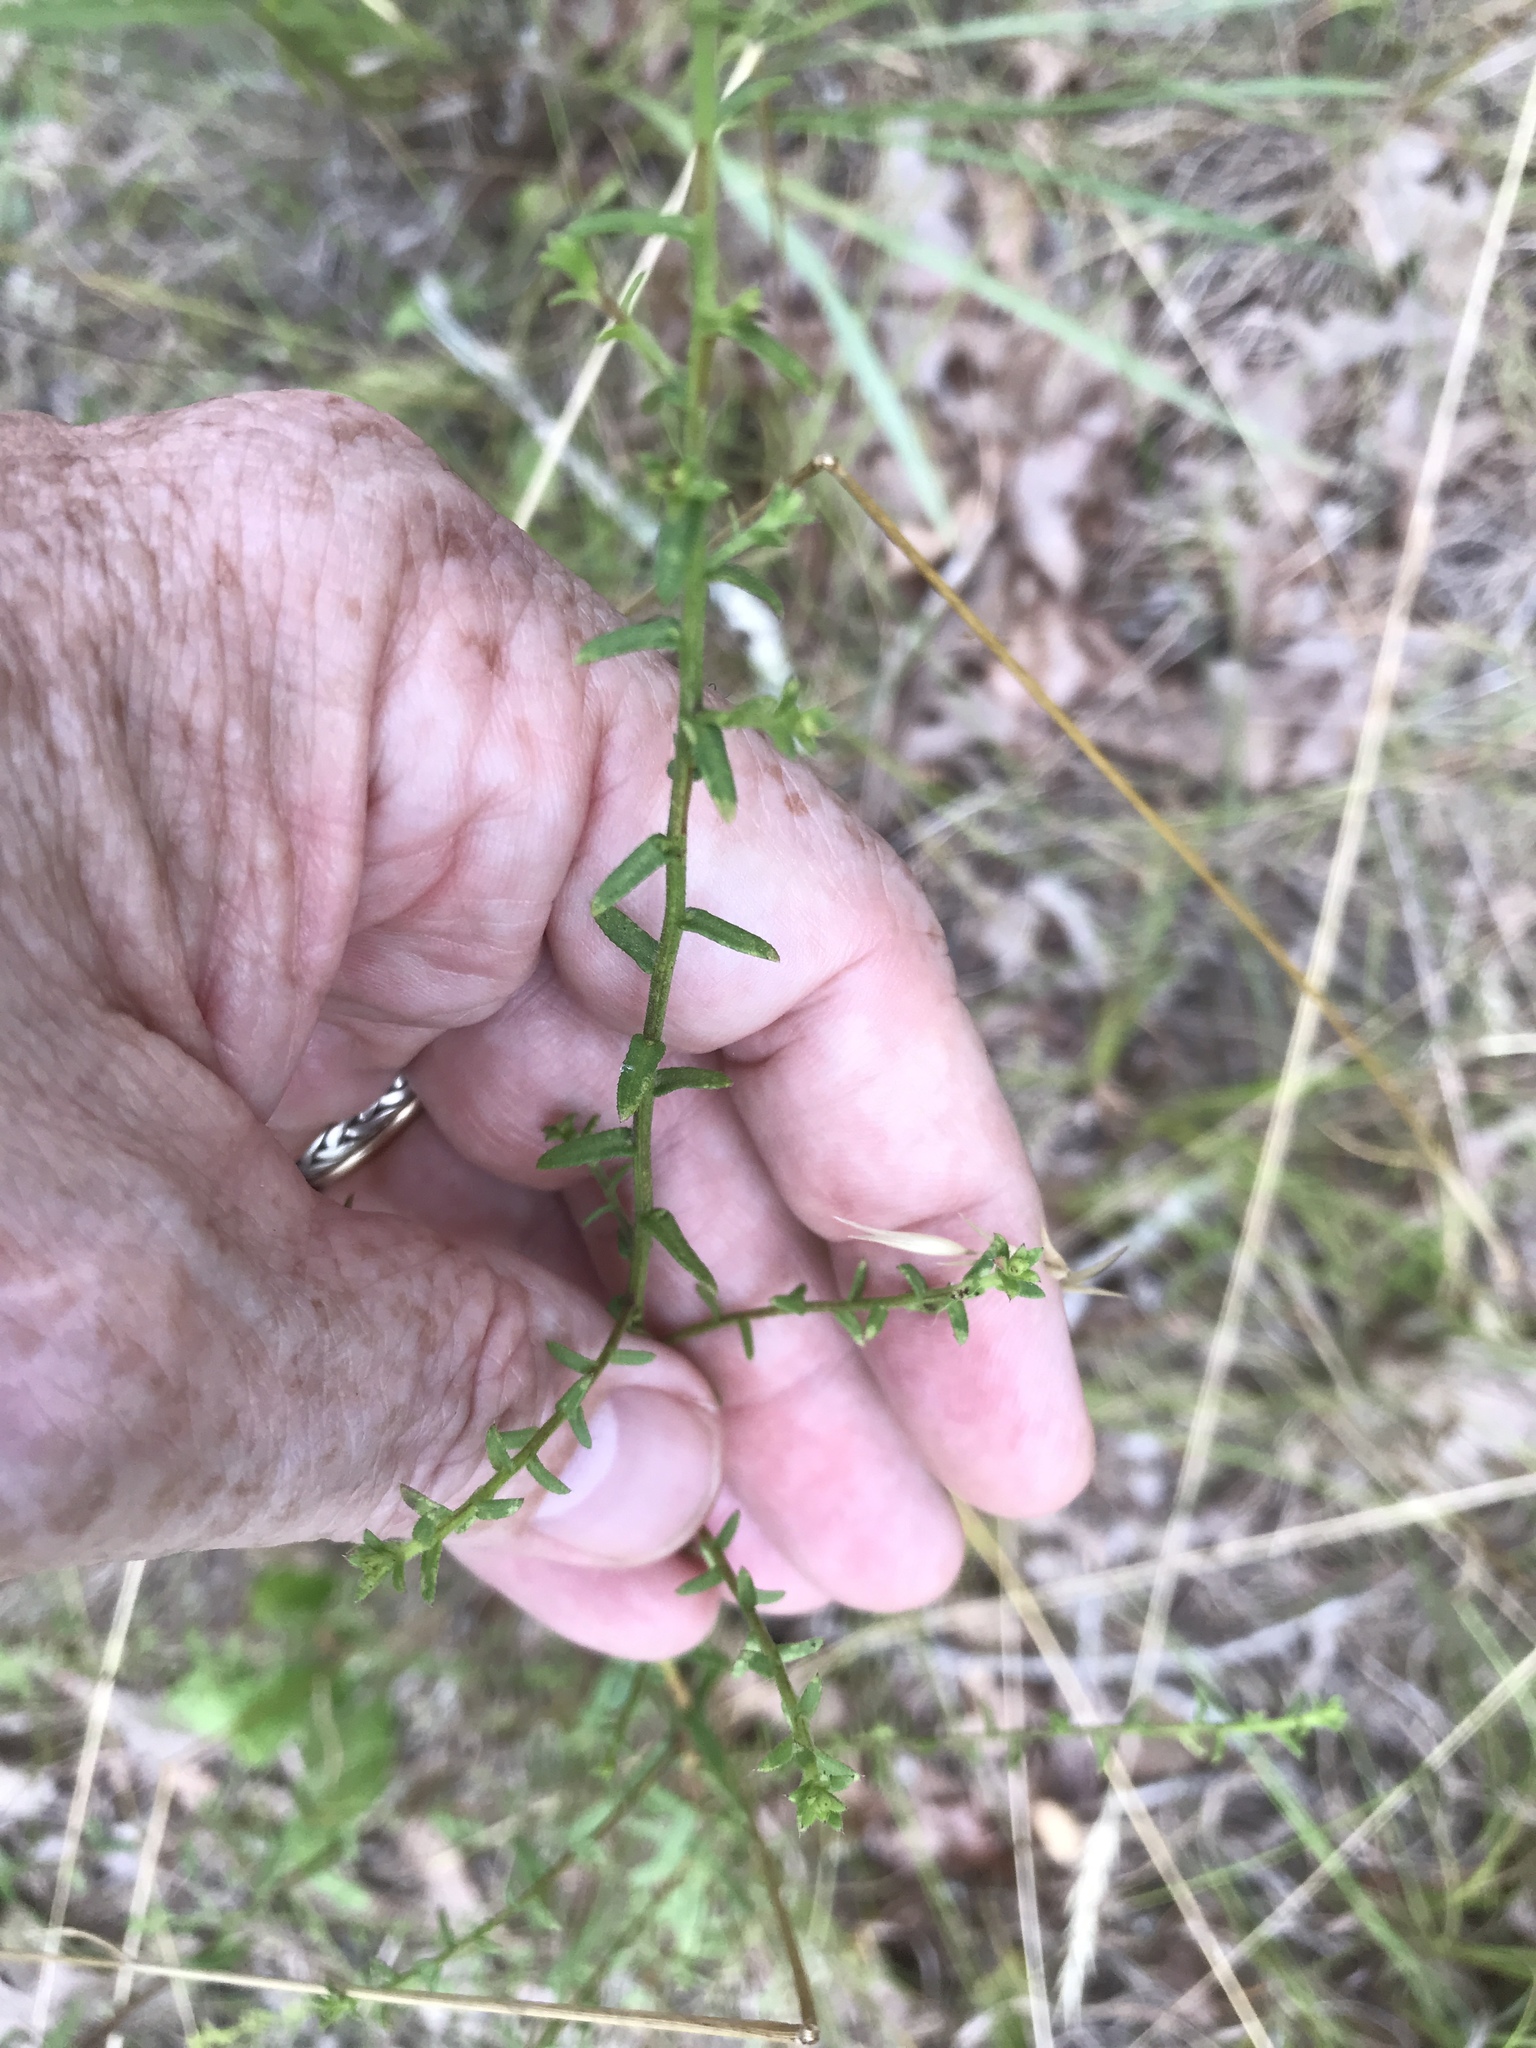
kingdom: Plantae
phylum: Tracheophyta
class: Magnoliopsida
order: Asterales
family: Asteraceae
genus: Symphyotrichum
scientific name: Symphyotrichum grandiflorum
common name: Big-head aster
